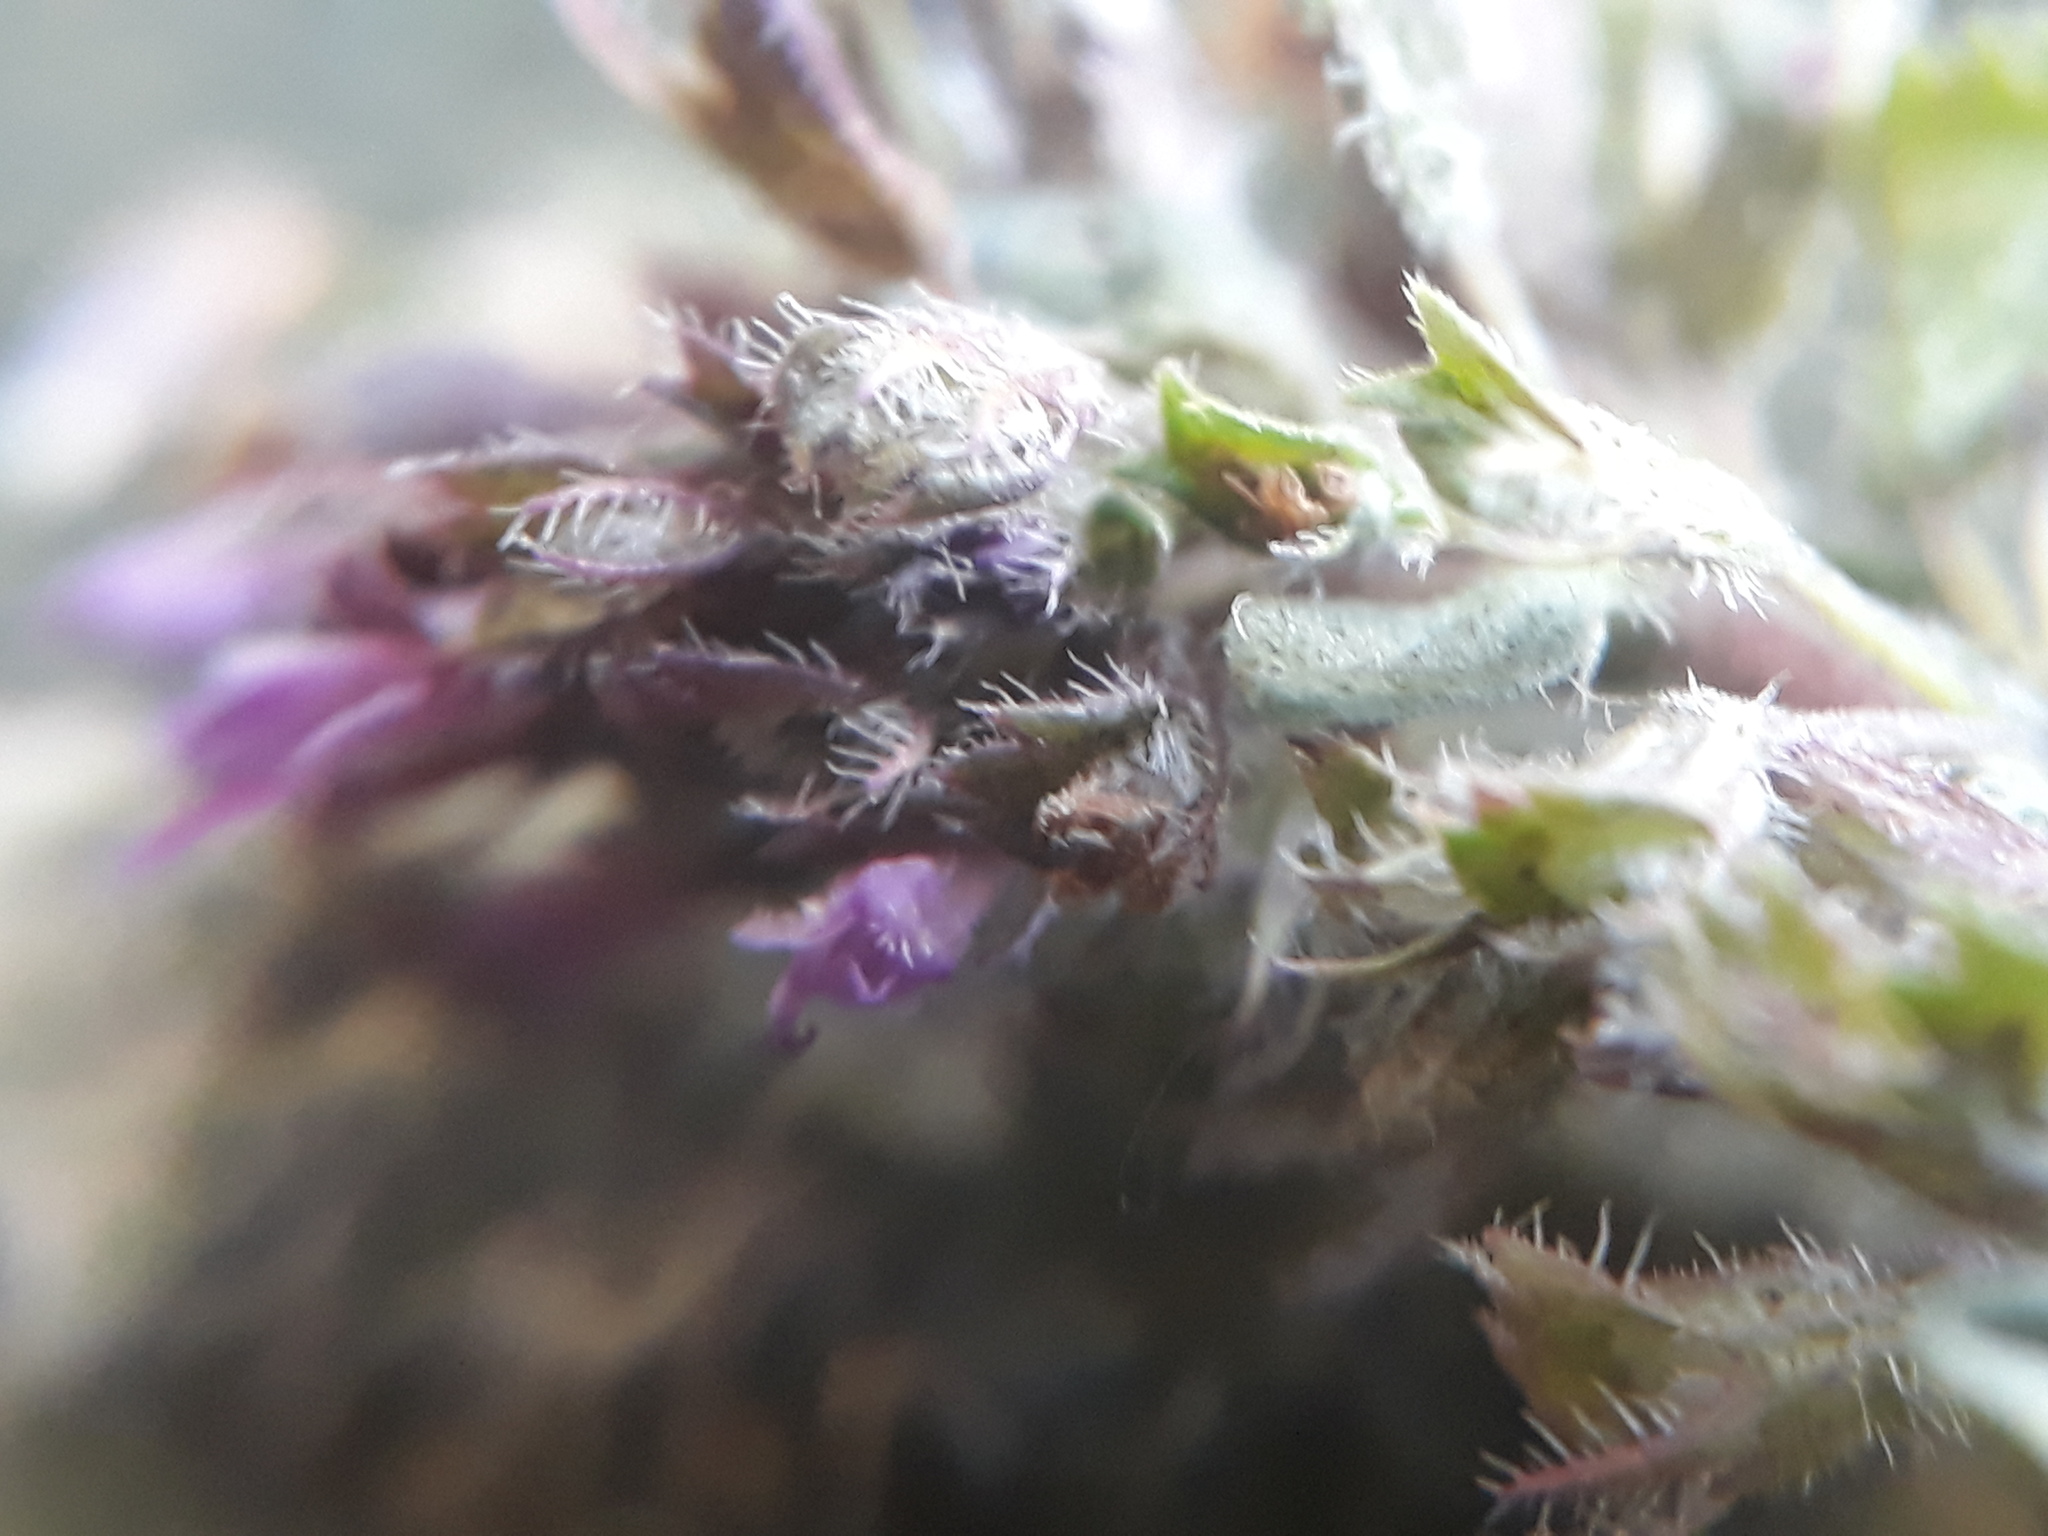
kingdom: Plantae
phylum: Tracheophyta
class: Magnoliopsida
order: Lamiales
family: Lamiaceae
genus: Thymus
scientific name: Thymus pulegioides
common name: Large thyme
